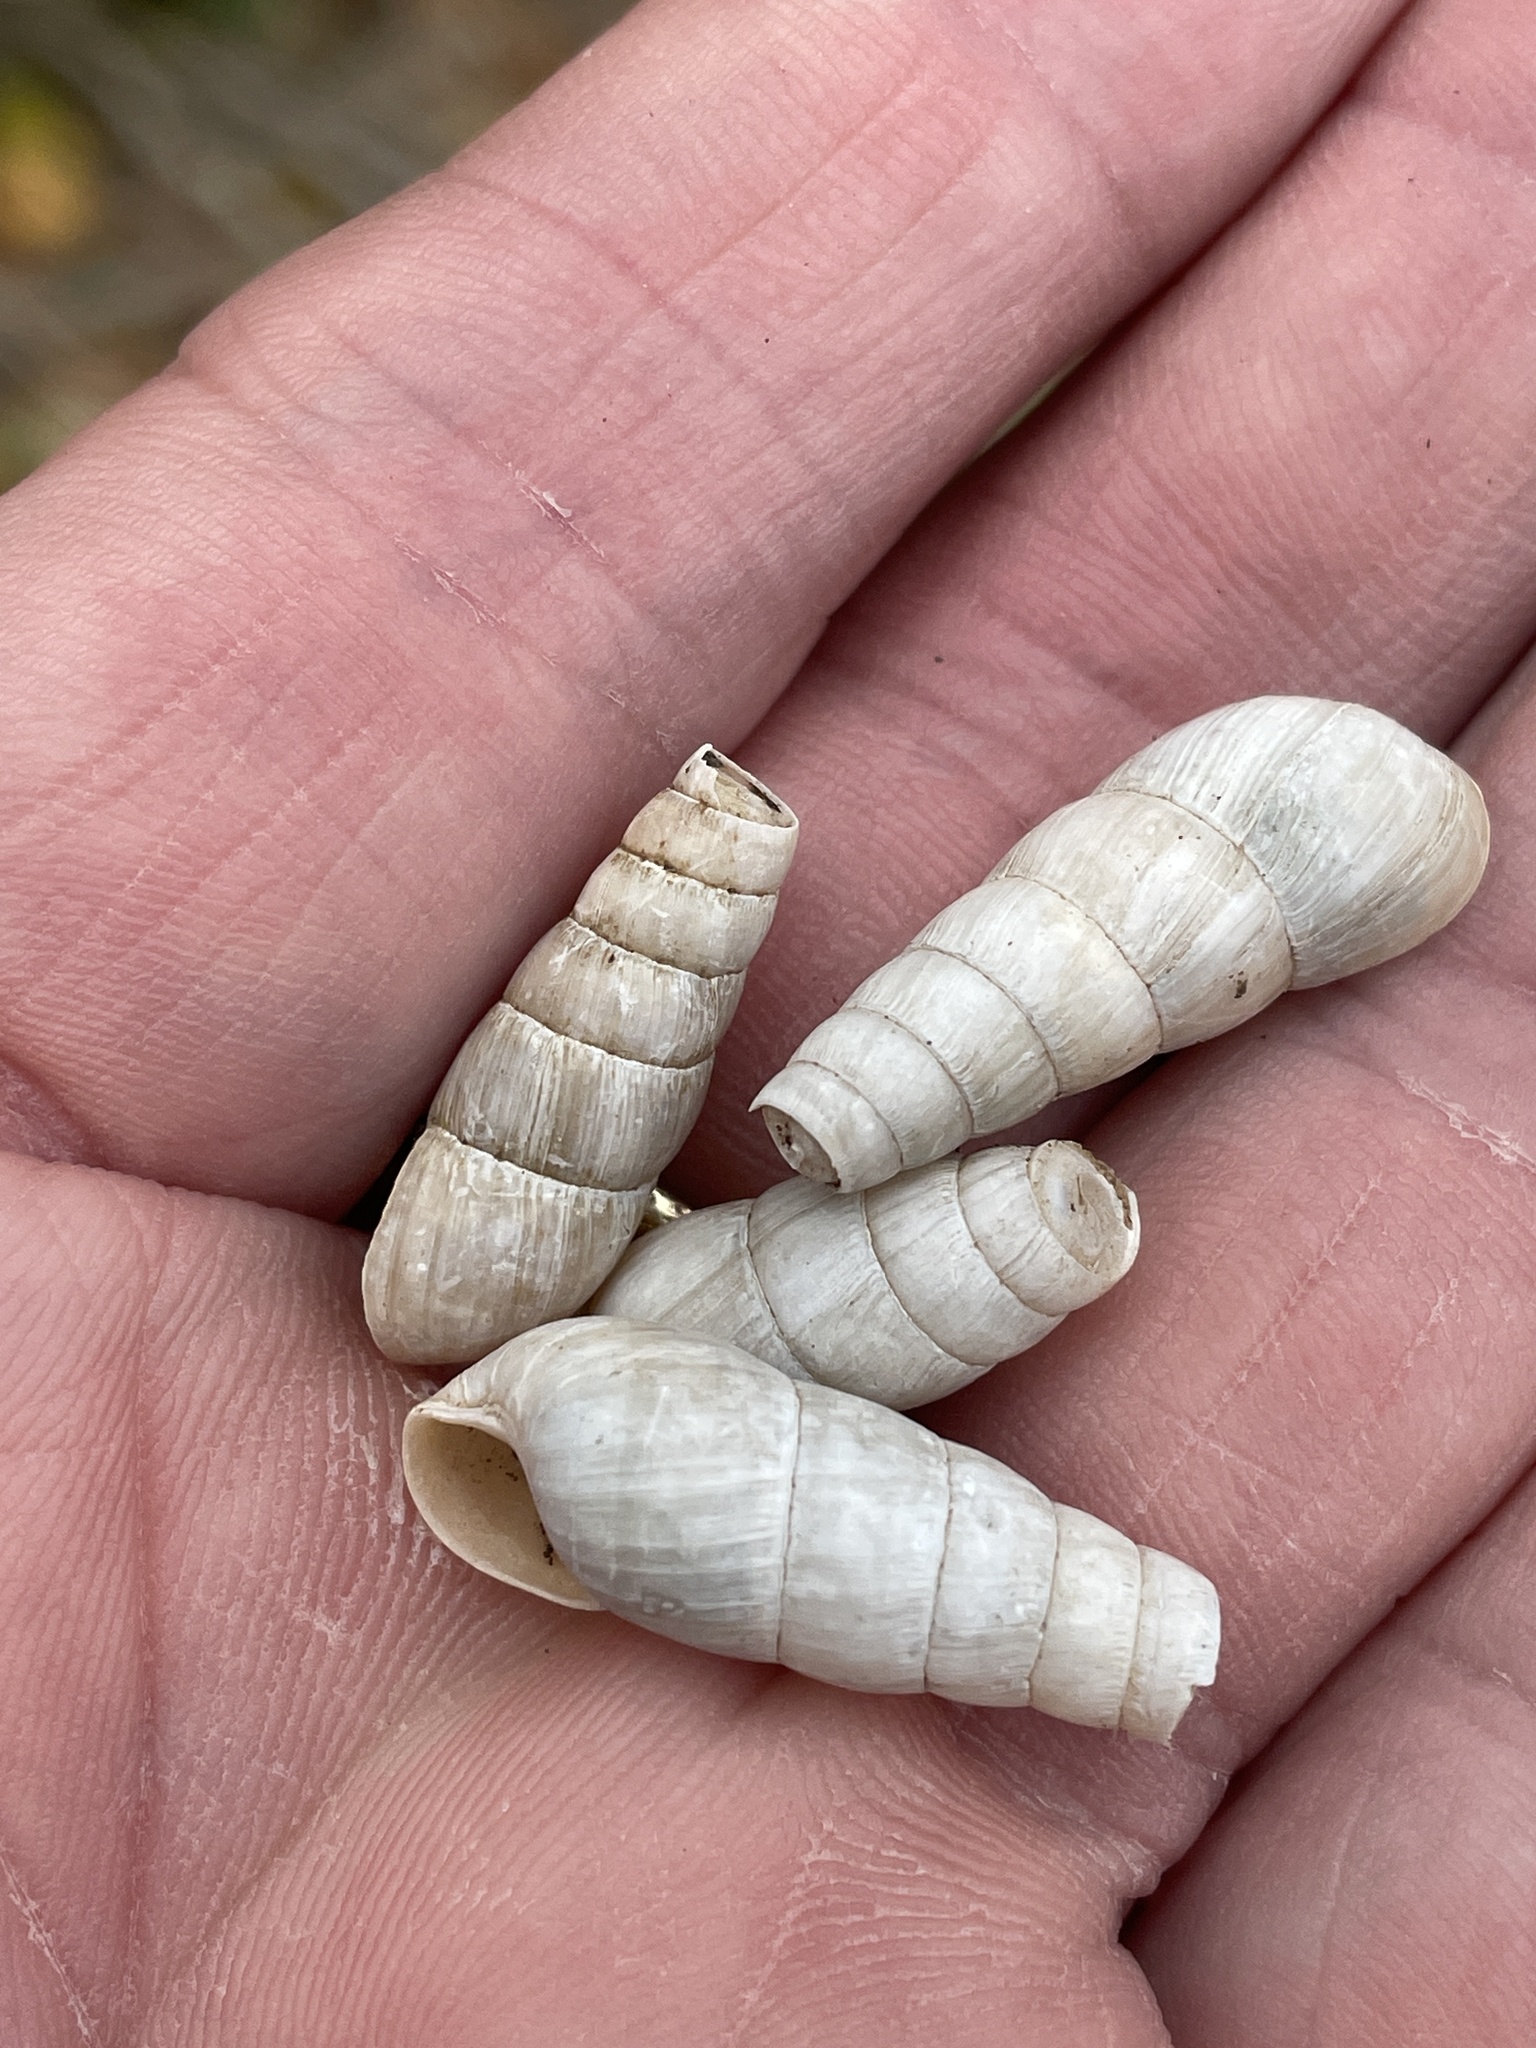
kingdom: Animalia
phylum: Mollusca
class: Gastropoda
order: Stylommatophora
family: Achatinidae
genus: Rumina
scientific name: Rumina decollata
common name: Decollate snail
